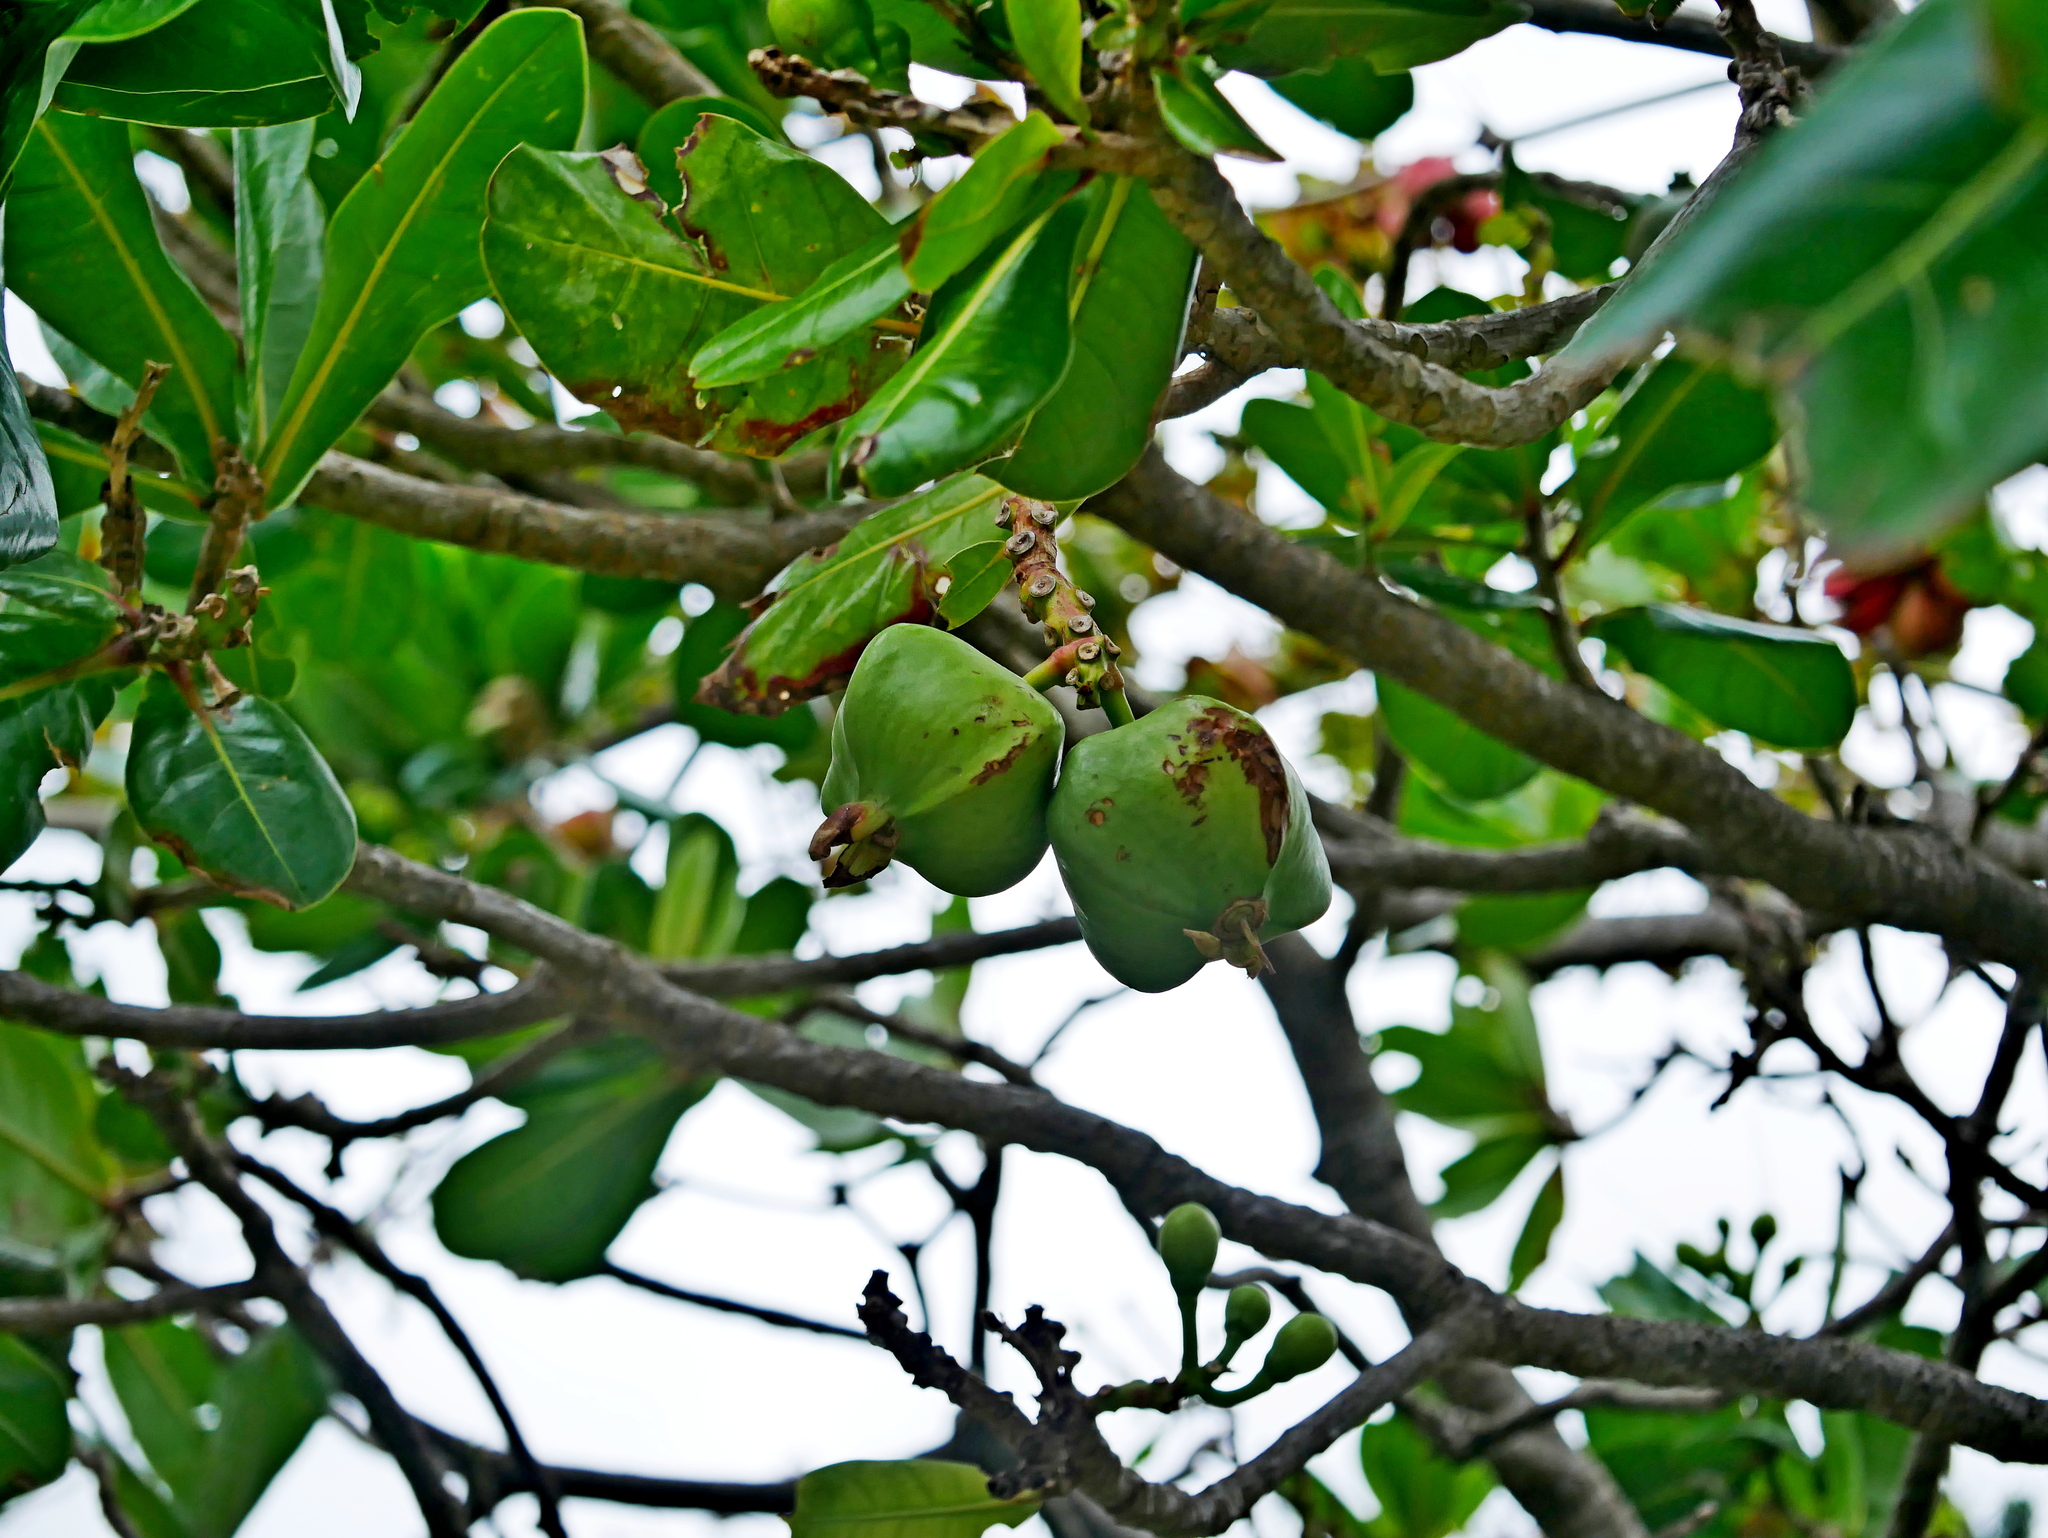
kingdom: Plantae
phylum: Tracheophyta
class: Magnoliopsida
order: Ericales
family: Lecythidaceae
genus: Barringtonia
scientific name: Barringtonia asiatica
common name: Mango-pine
